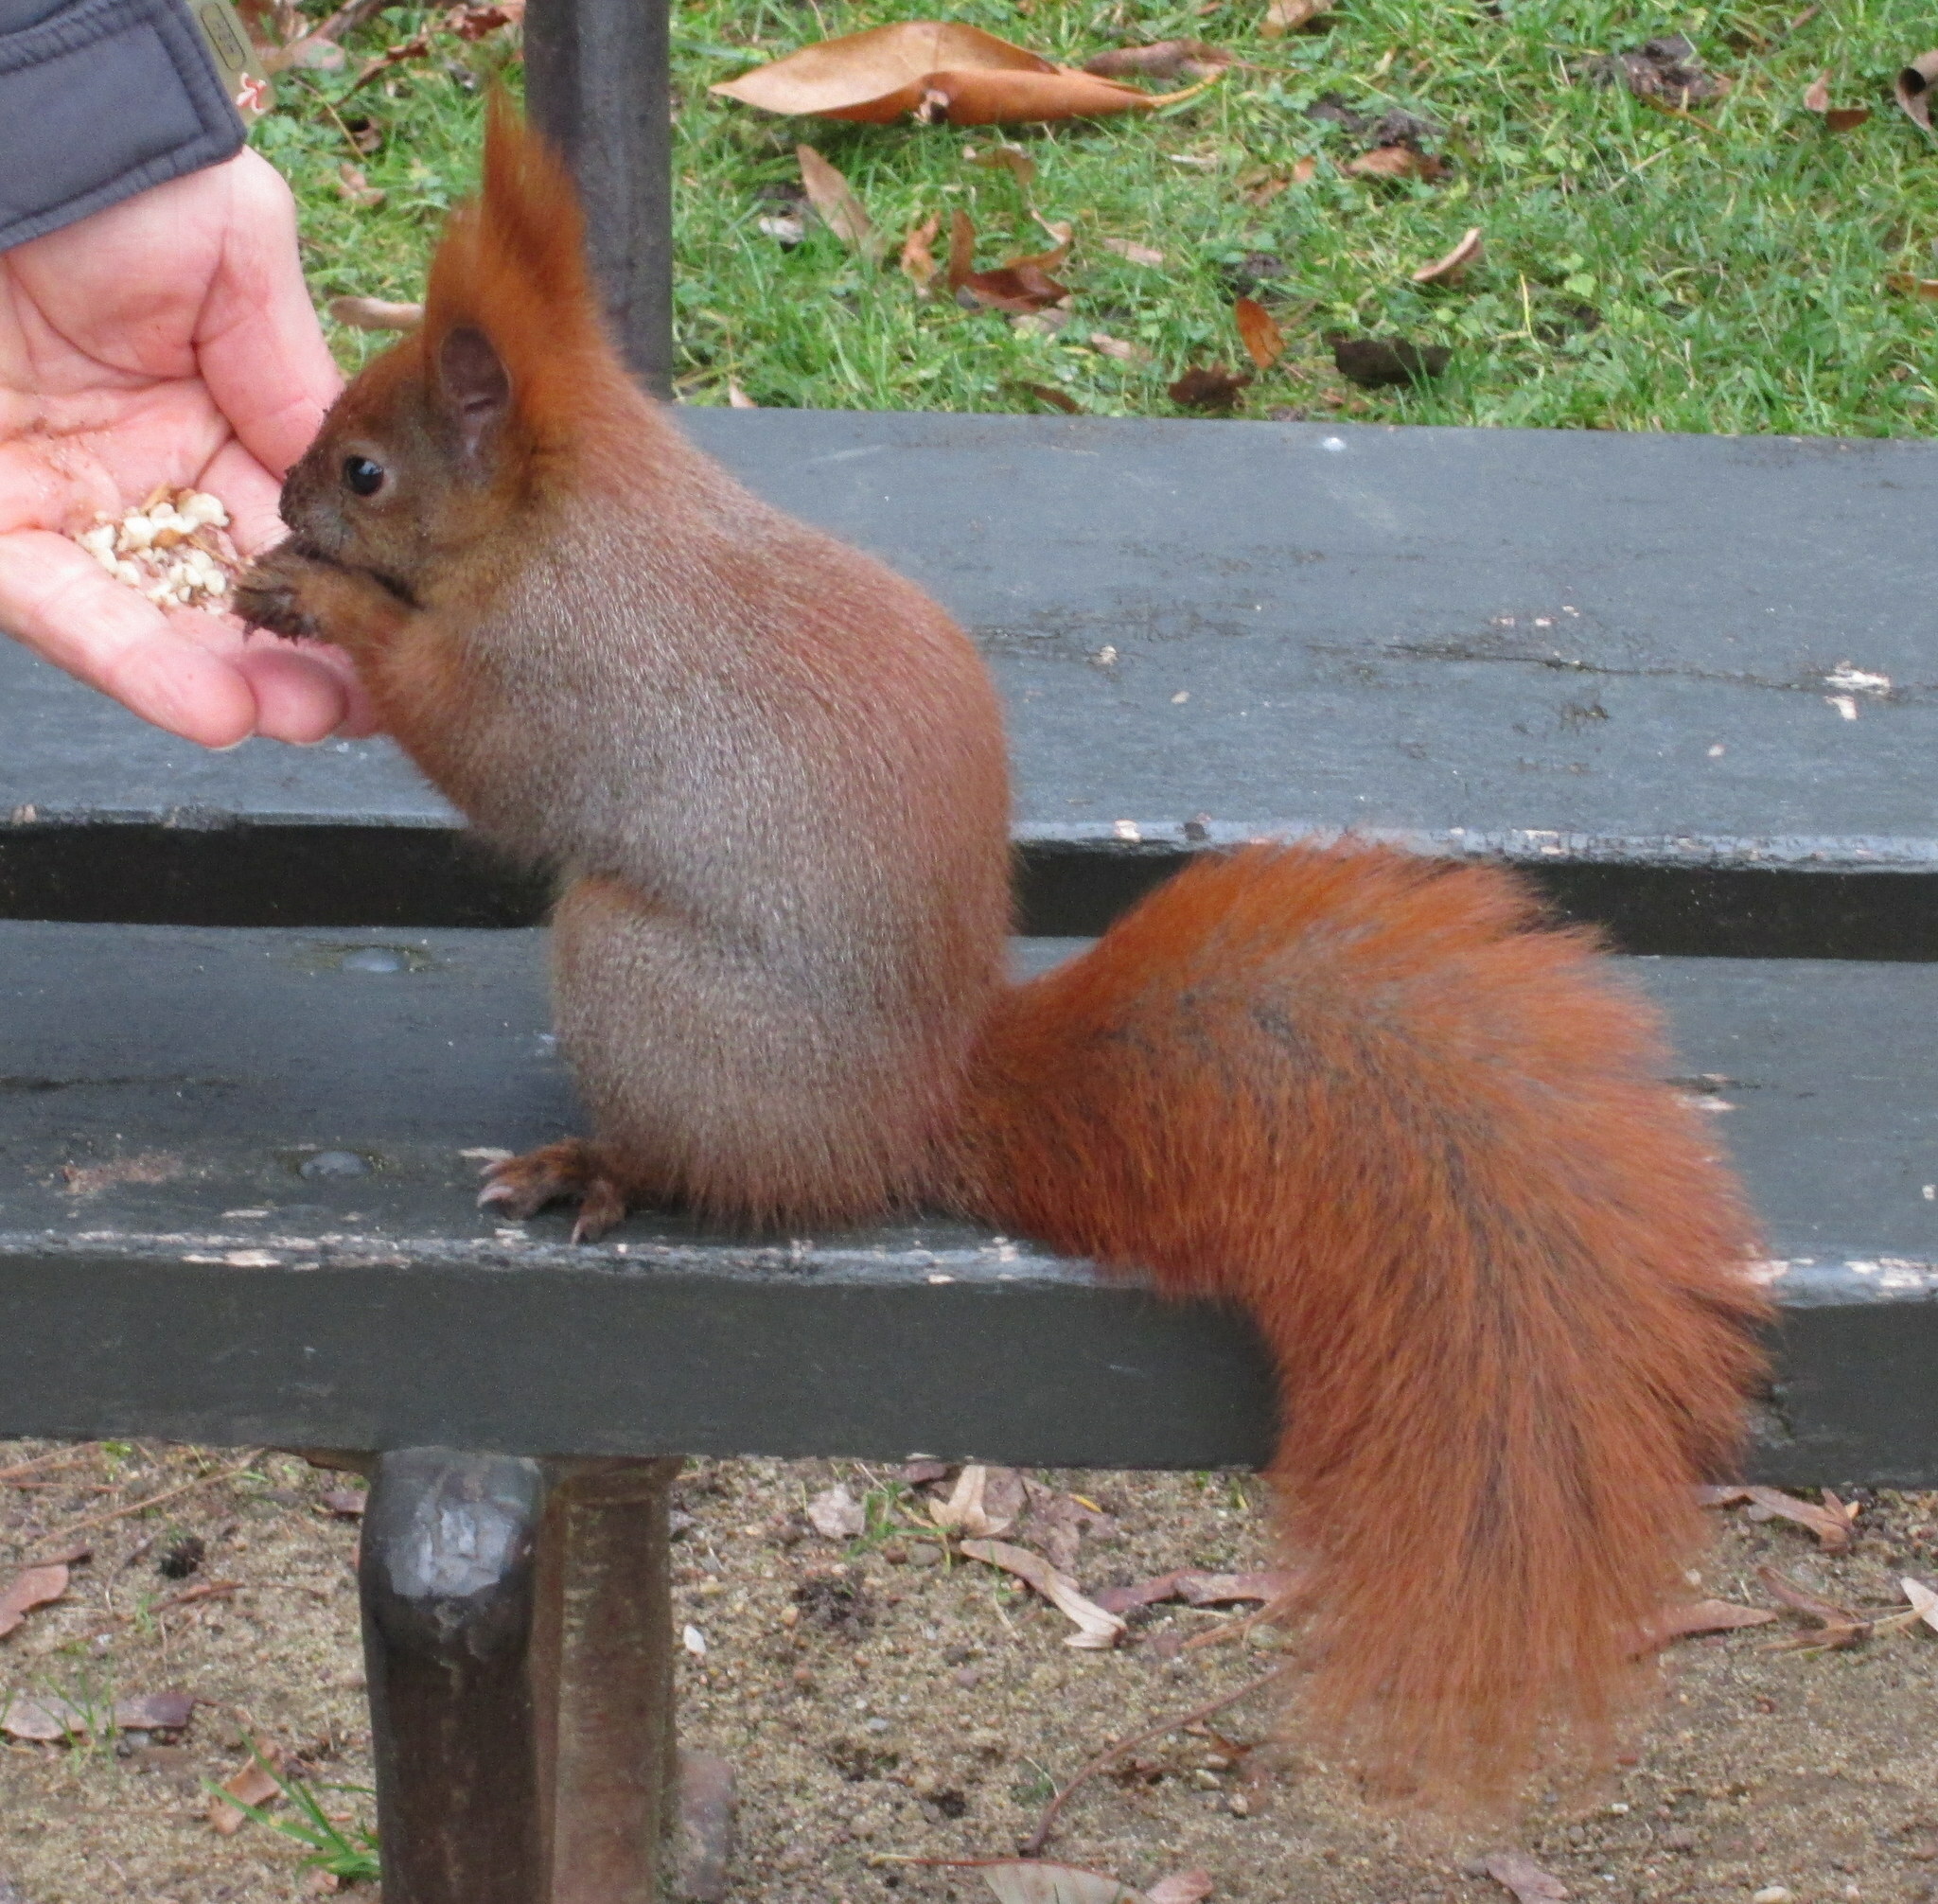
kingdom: Animalia
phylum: Chordata
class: Mammalia
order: Rodentia
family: Sciuridae
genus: Sciurus
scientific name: Sciurus vulgaris
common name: Eurasian red squirrel
